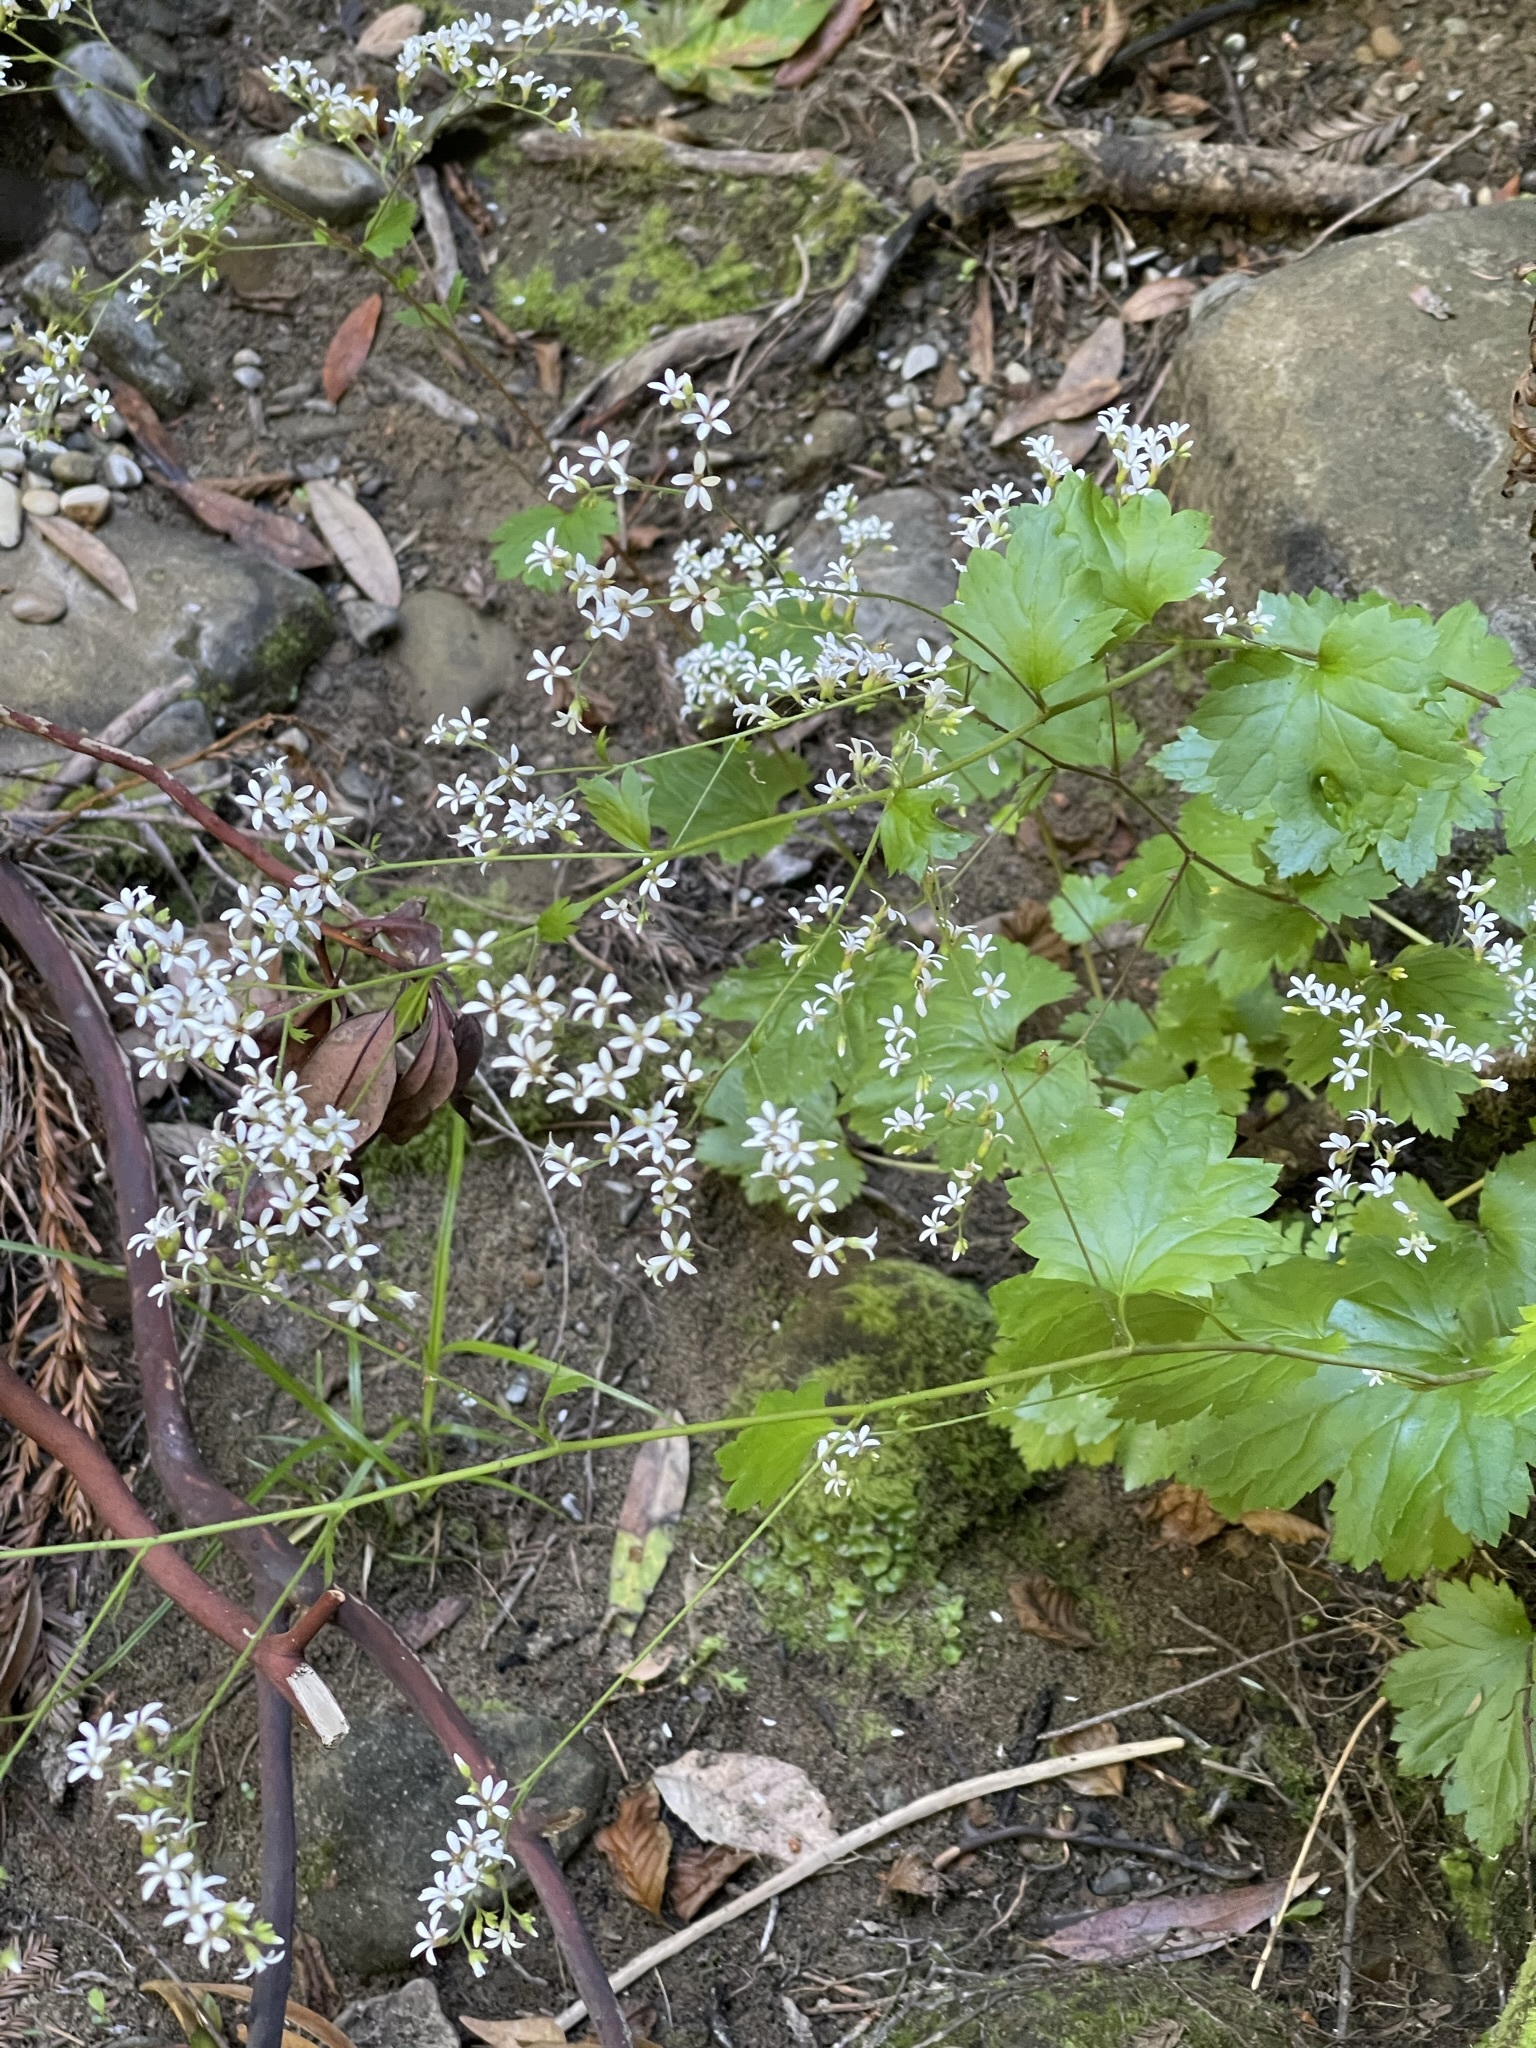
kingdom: Plantae
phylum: Tracheophyta
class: Magnoliopsida
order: Saxifragales
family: Saxifragaceae
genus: Boykinia
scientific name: Boykinia occidentalis
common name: Coast boykinia
